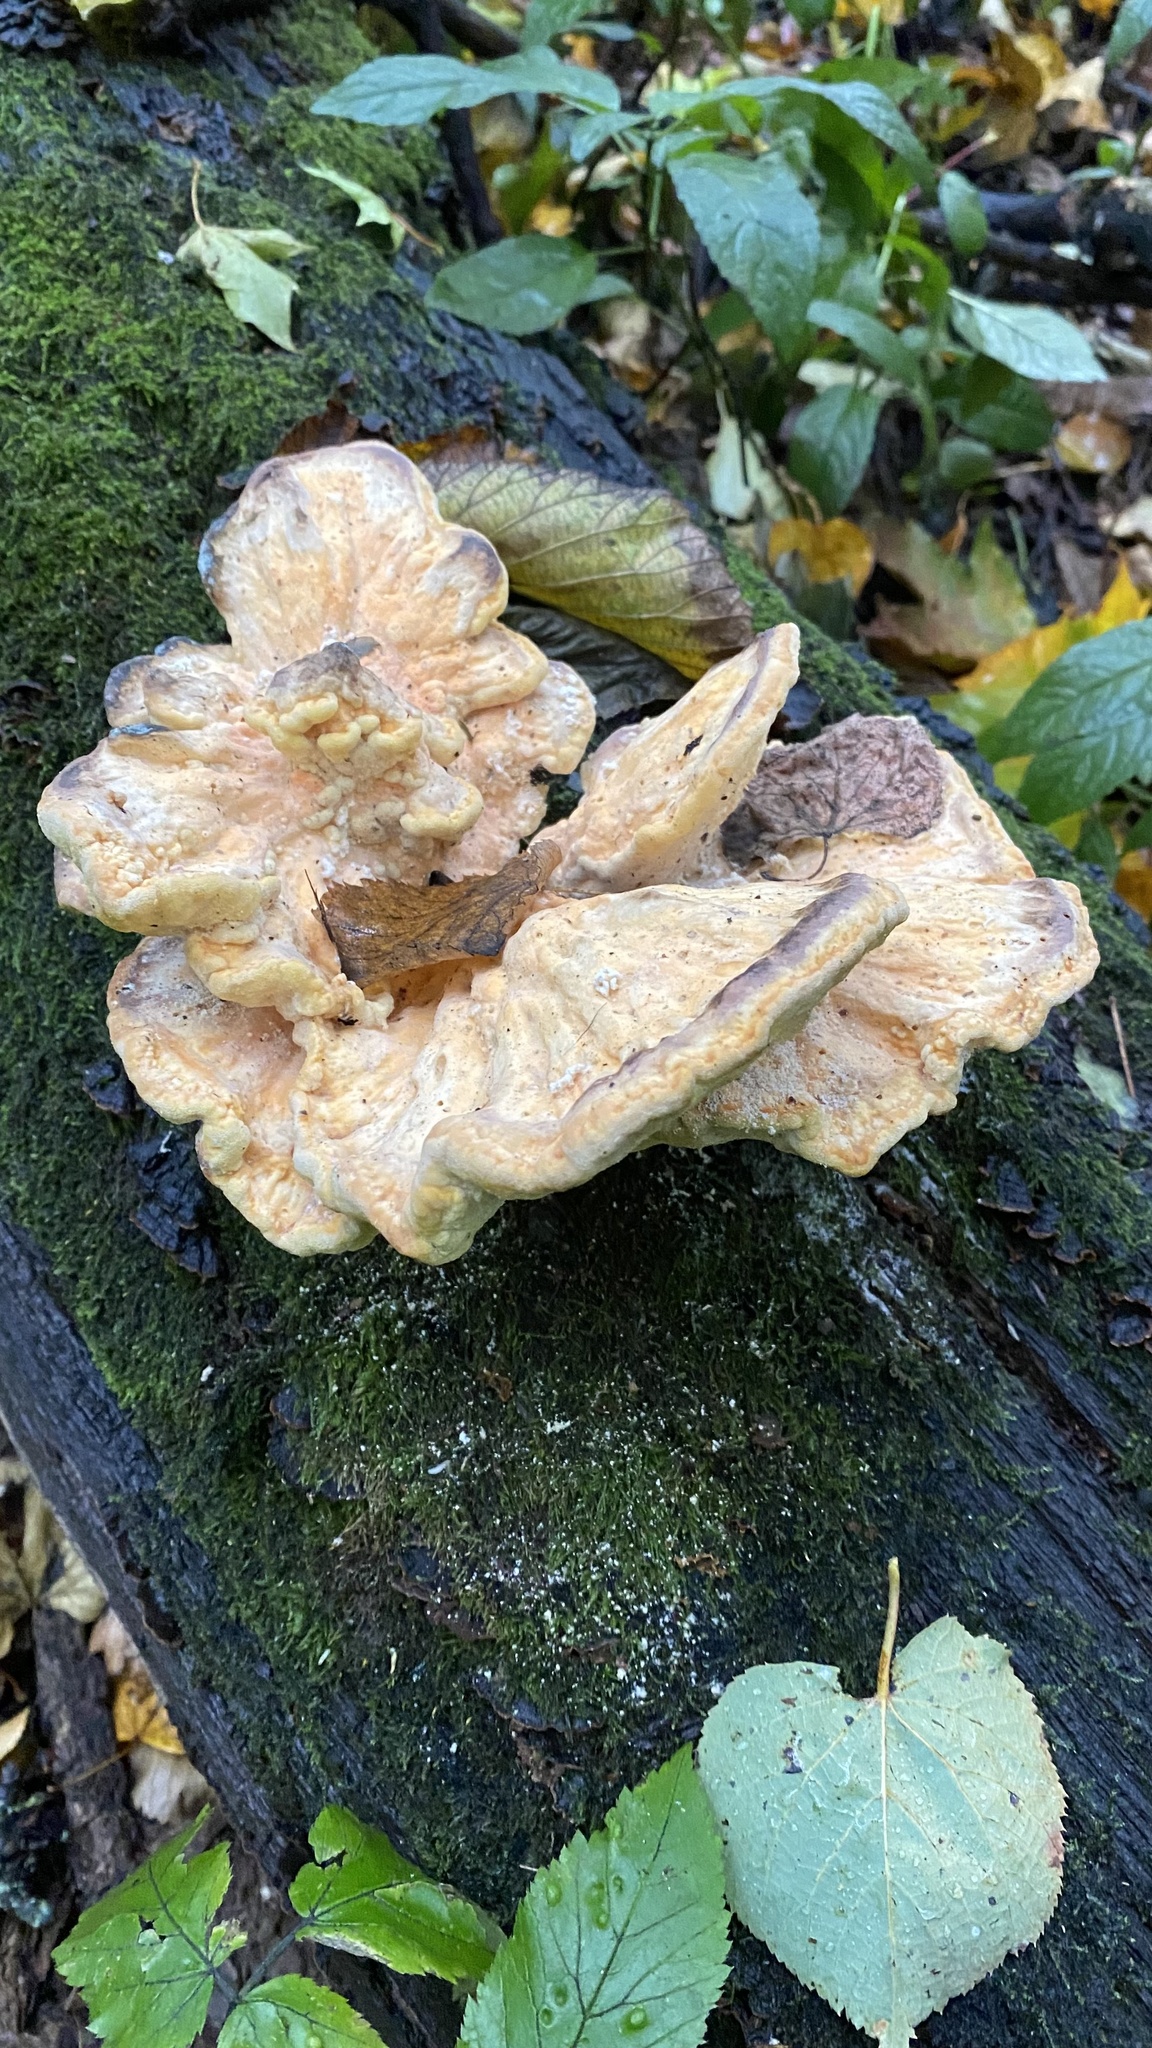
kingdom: Fungi
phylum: Basidiomycota
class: Agaricomycetes
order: Polyporales
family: Laetiporaceae
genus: Laetiporus
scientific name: Laetiporus sulphureus
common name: Chicken of the woods
